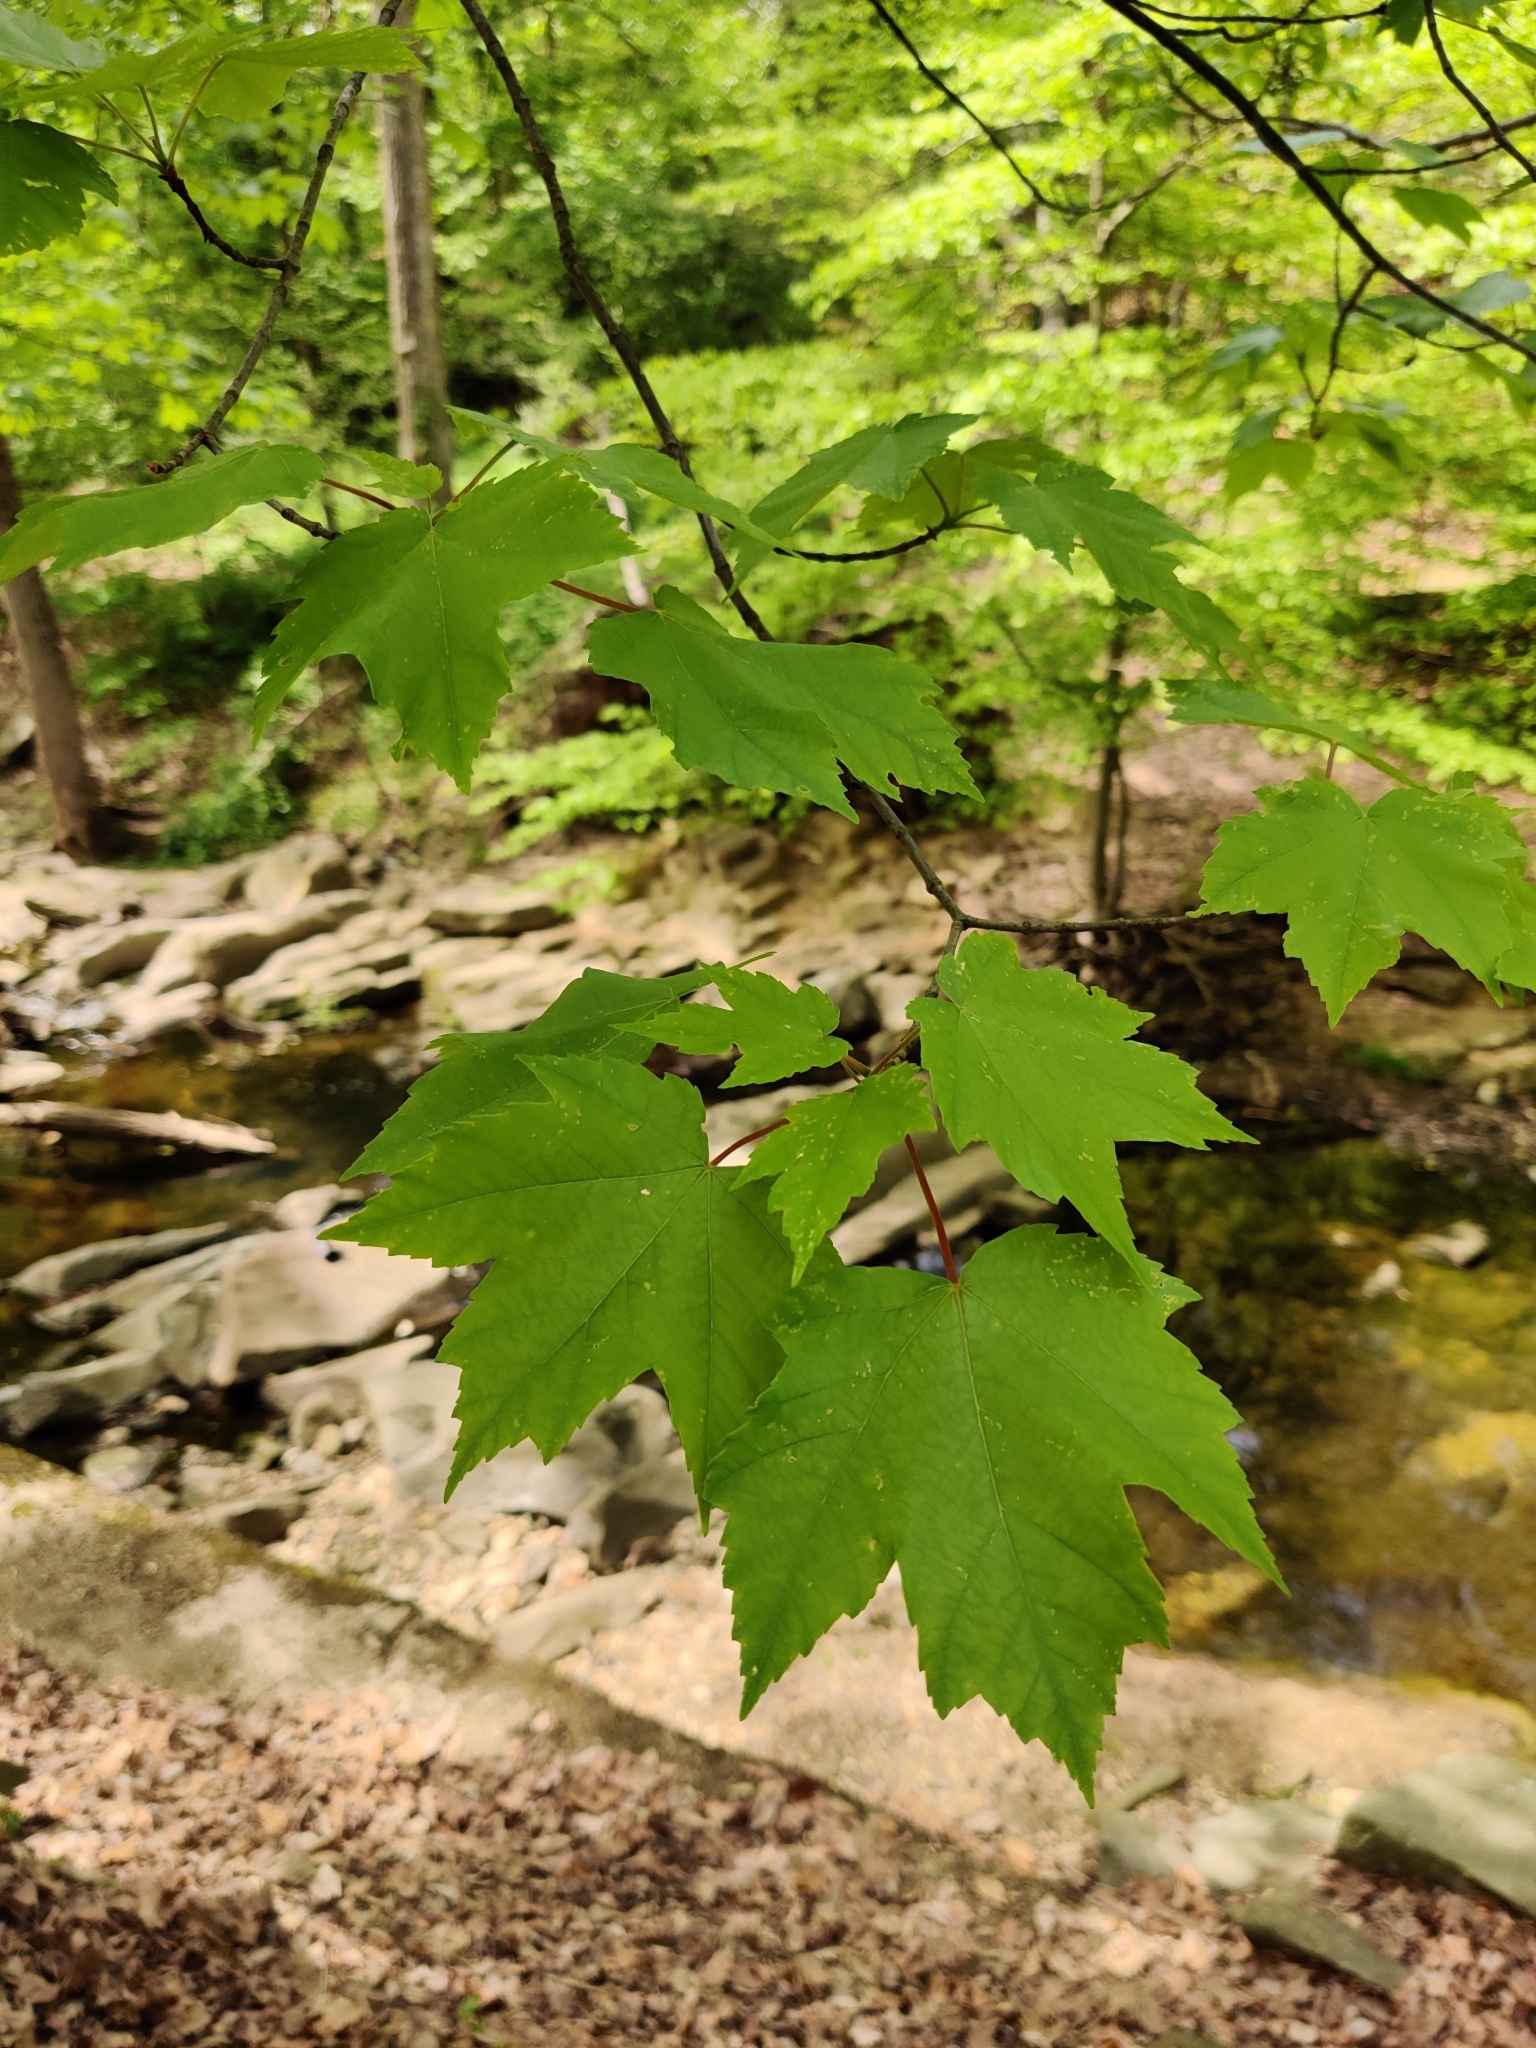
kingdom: Plantae
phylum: Tracheophyta
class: Magnoliopsida
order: Sapindales
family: Sapindaceae
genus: Acer
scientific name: Acer rubrum
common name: Red maple
